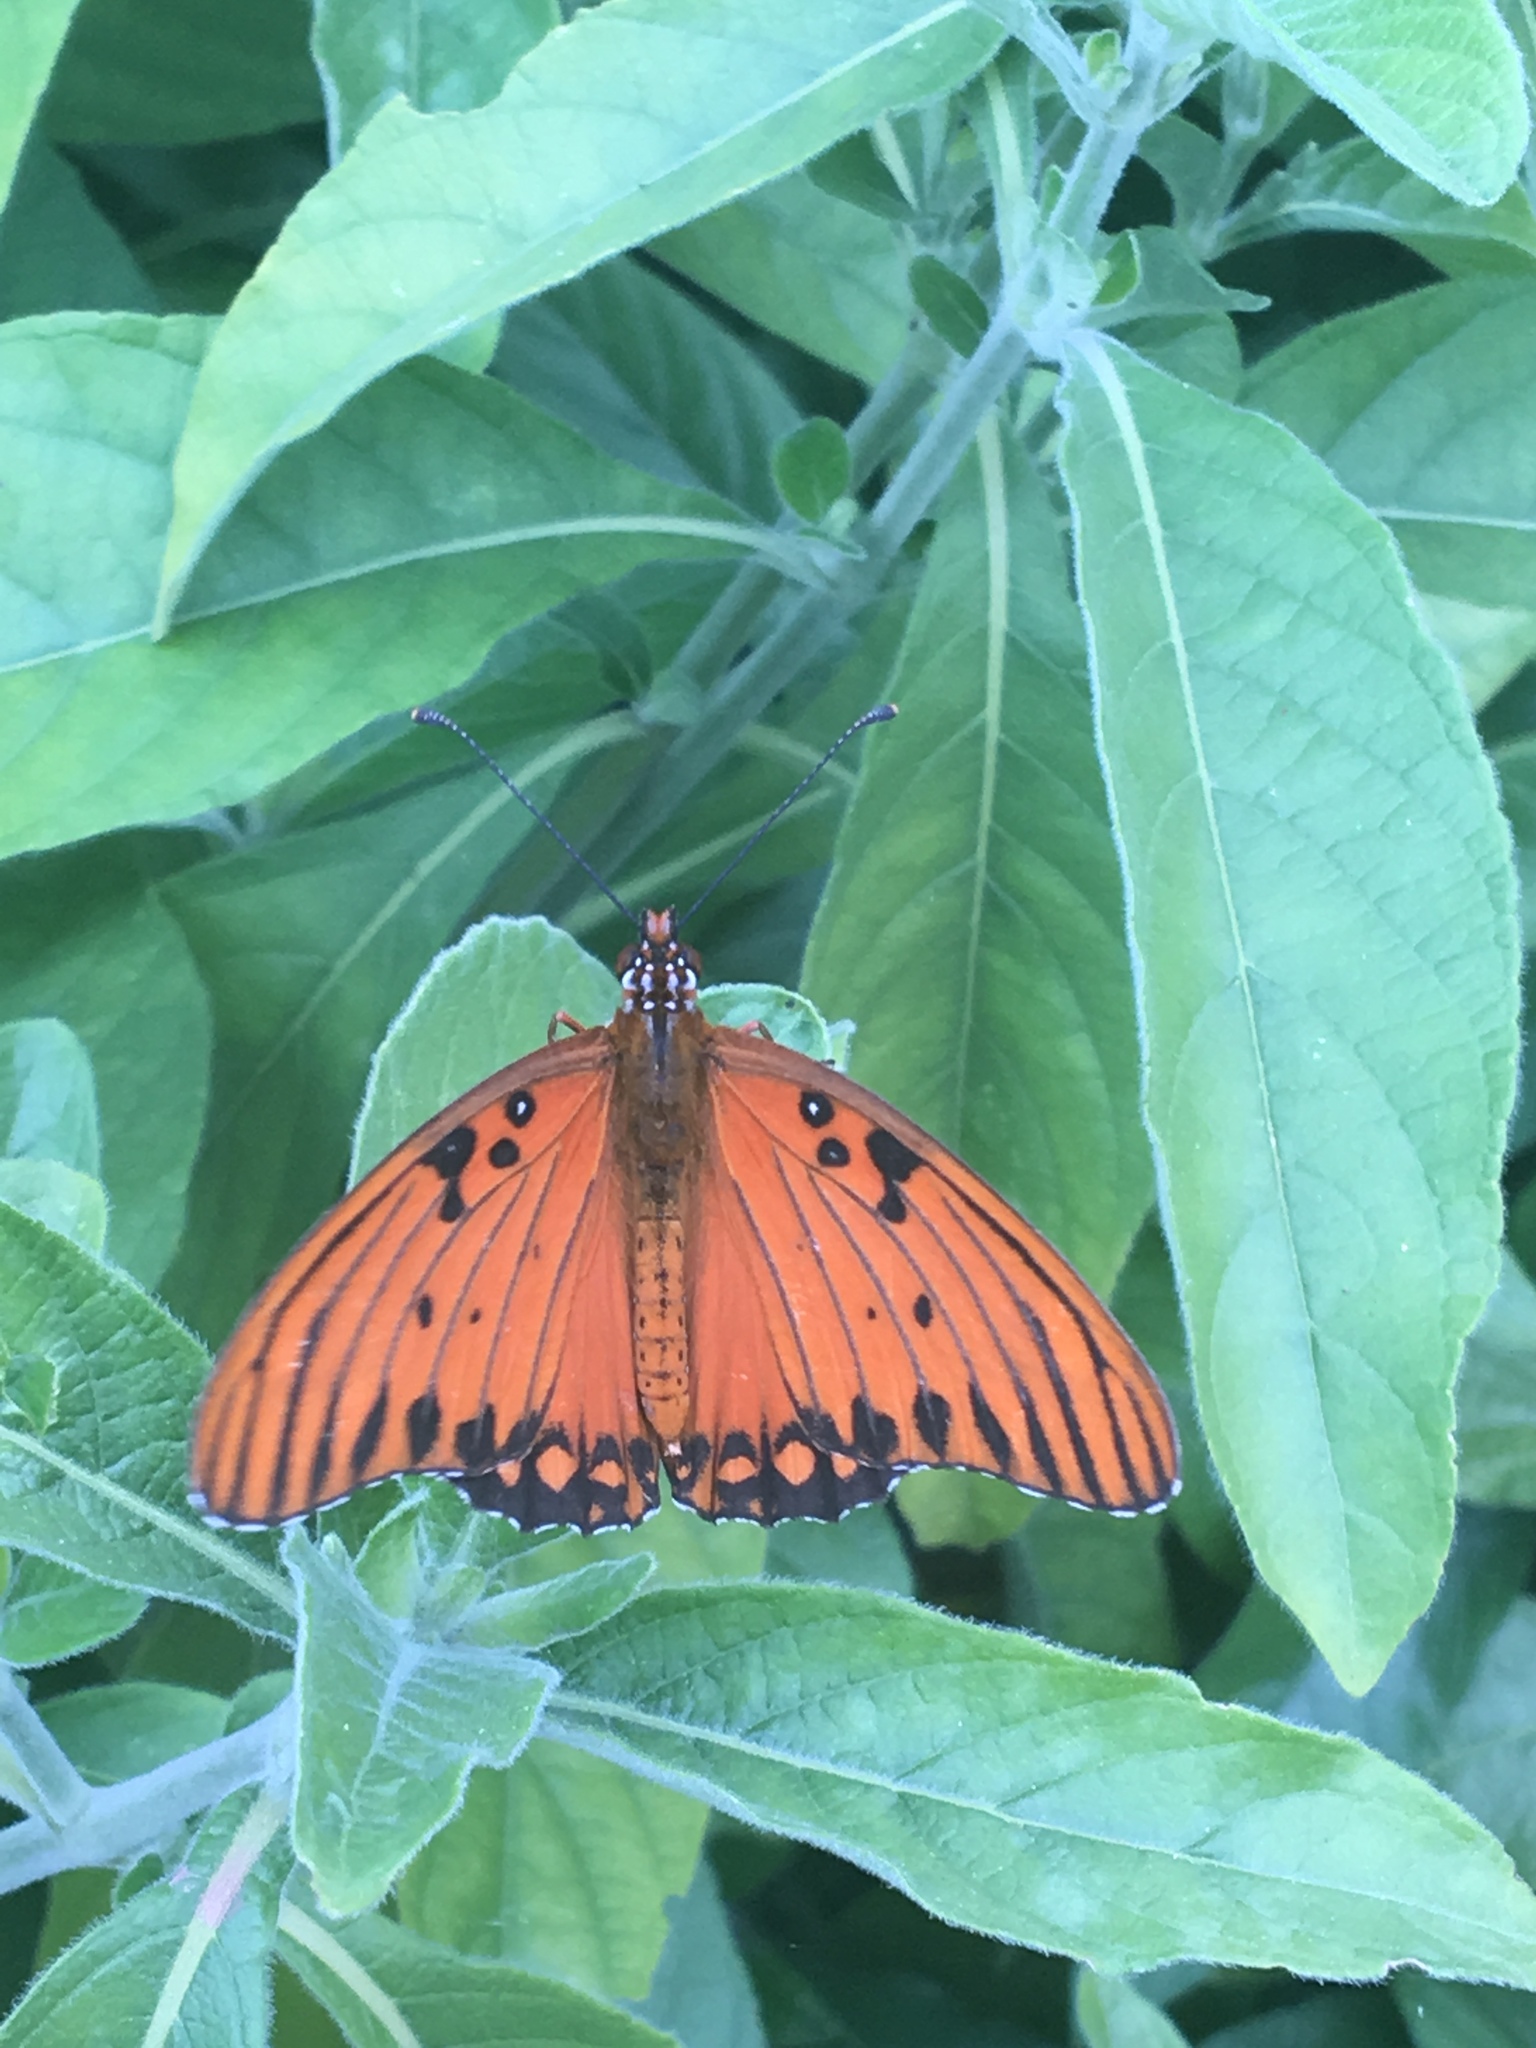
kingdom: Animalia
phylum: Arthropoda
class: Insecta
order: Lepidoptera
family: Nymphalidae
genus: Dione
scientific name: Dione vanillae
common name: Gulf fritillary
